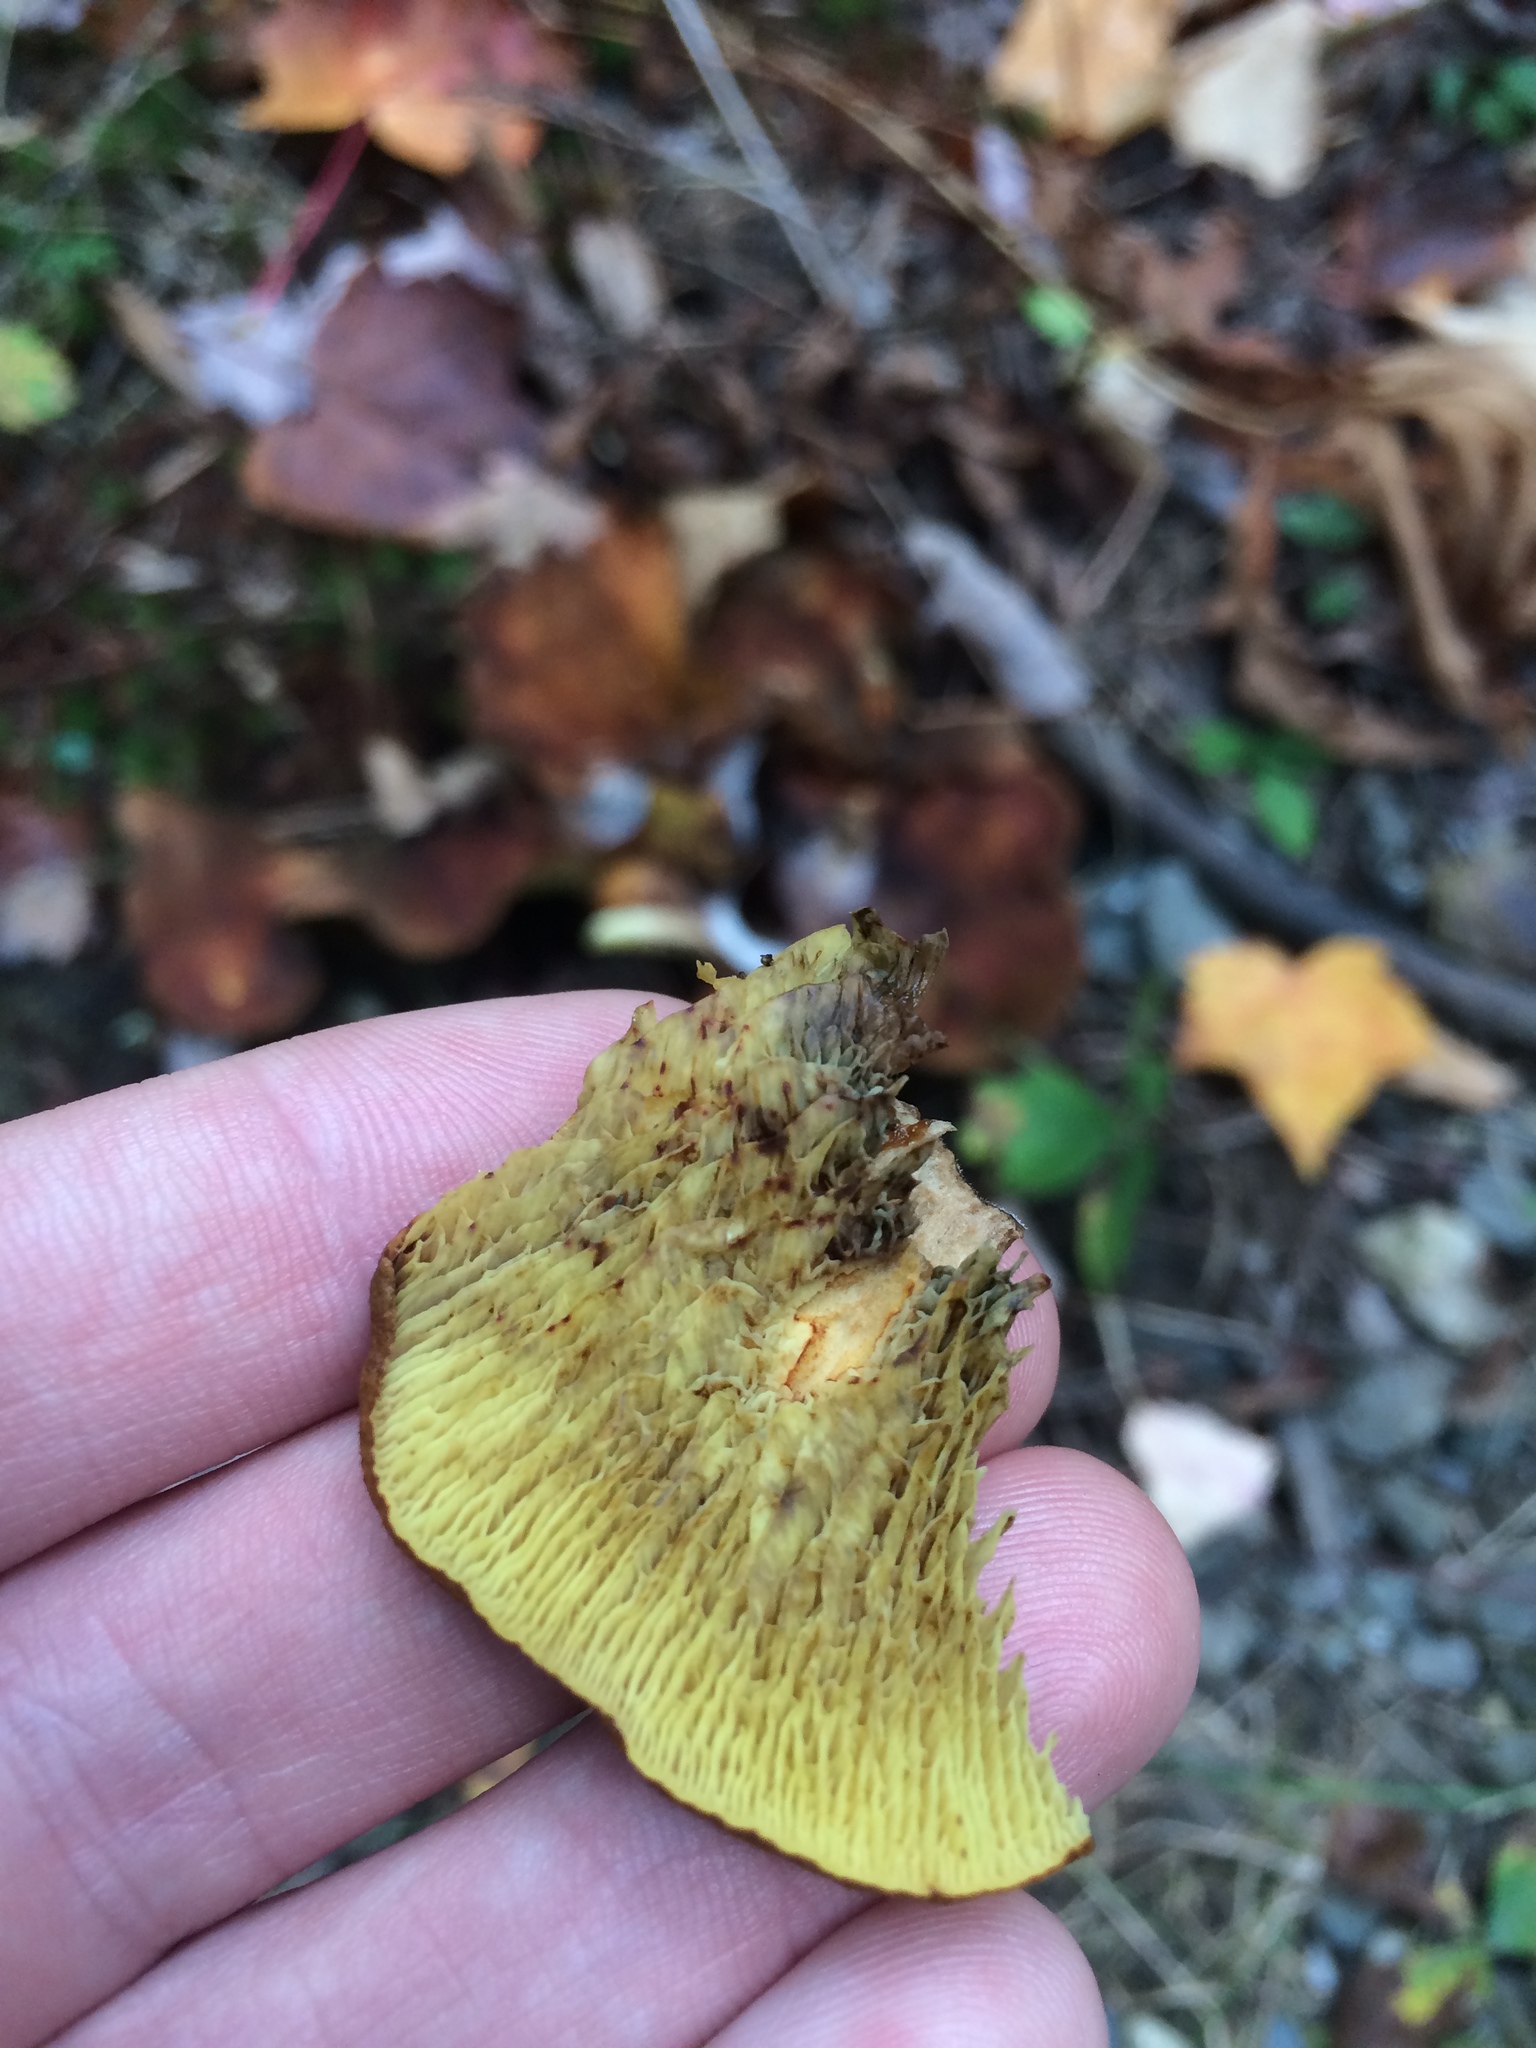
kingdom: Fungi
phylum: Basidiomycota
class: Agaricomycetes
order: Boletales
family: Boletinellaceae
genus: Boletinellus
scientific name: Boletinellus merulioides
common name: Ash tree bolete
